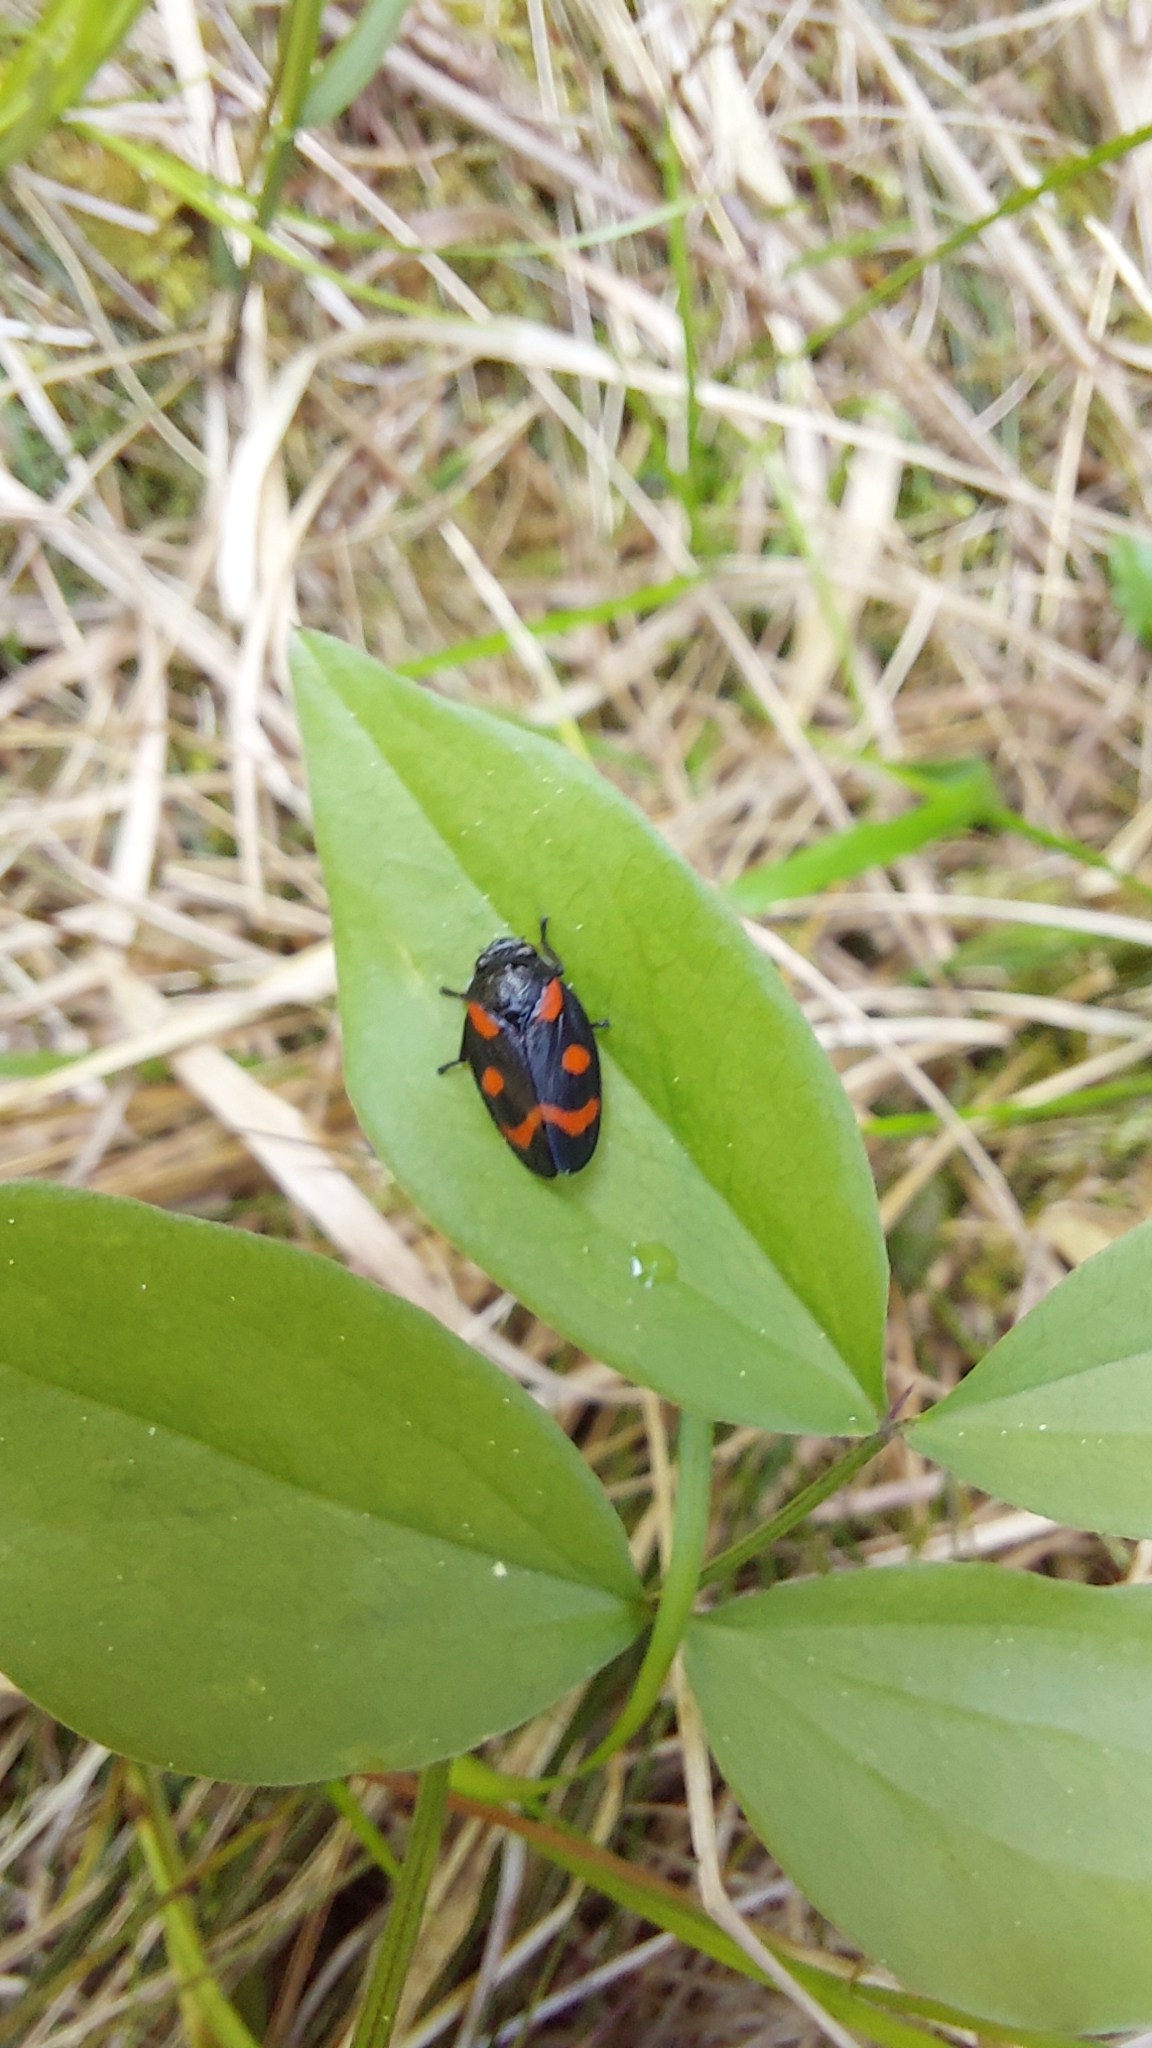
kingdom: Animalia
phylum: Arthropoda
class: Insecta
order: Hemiptera
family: Cercopidae
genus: Cercopis
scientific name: Cercopis sanguinolenta
